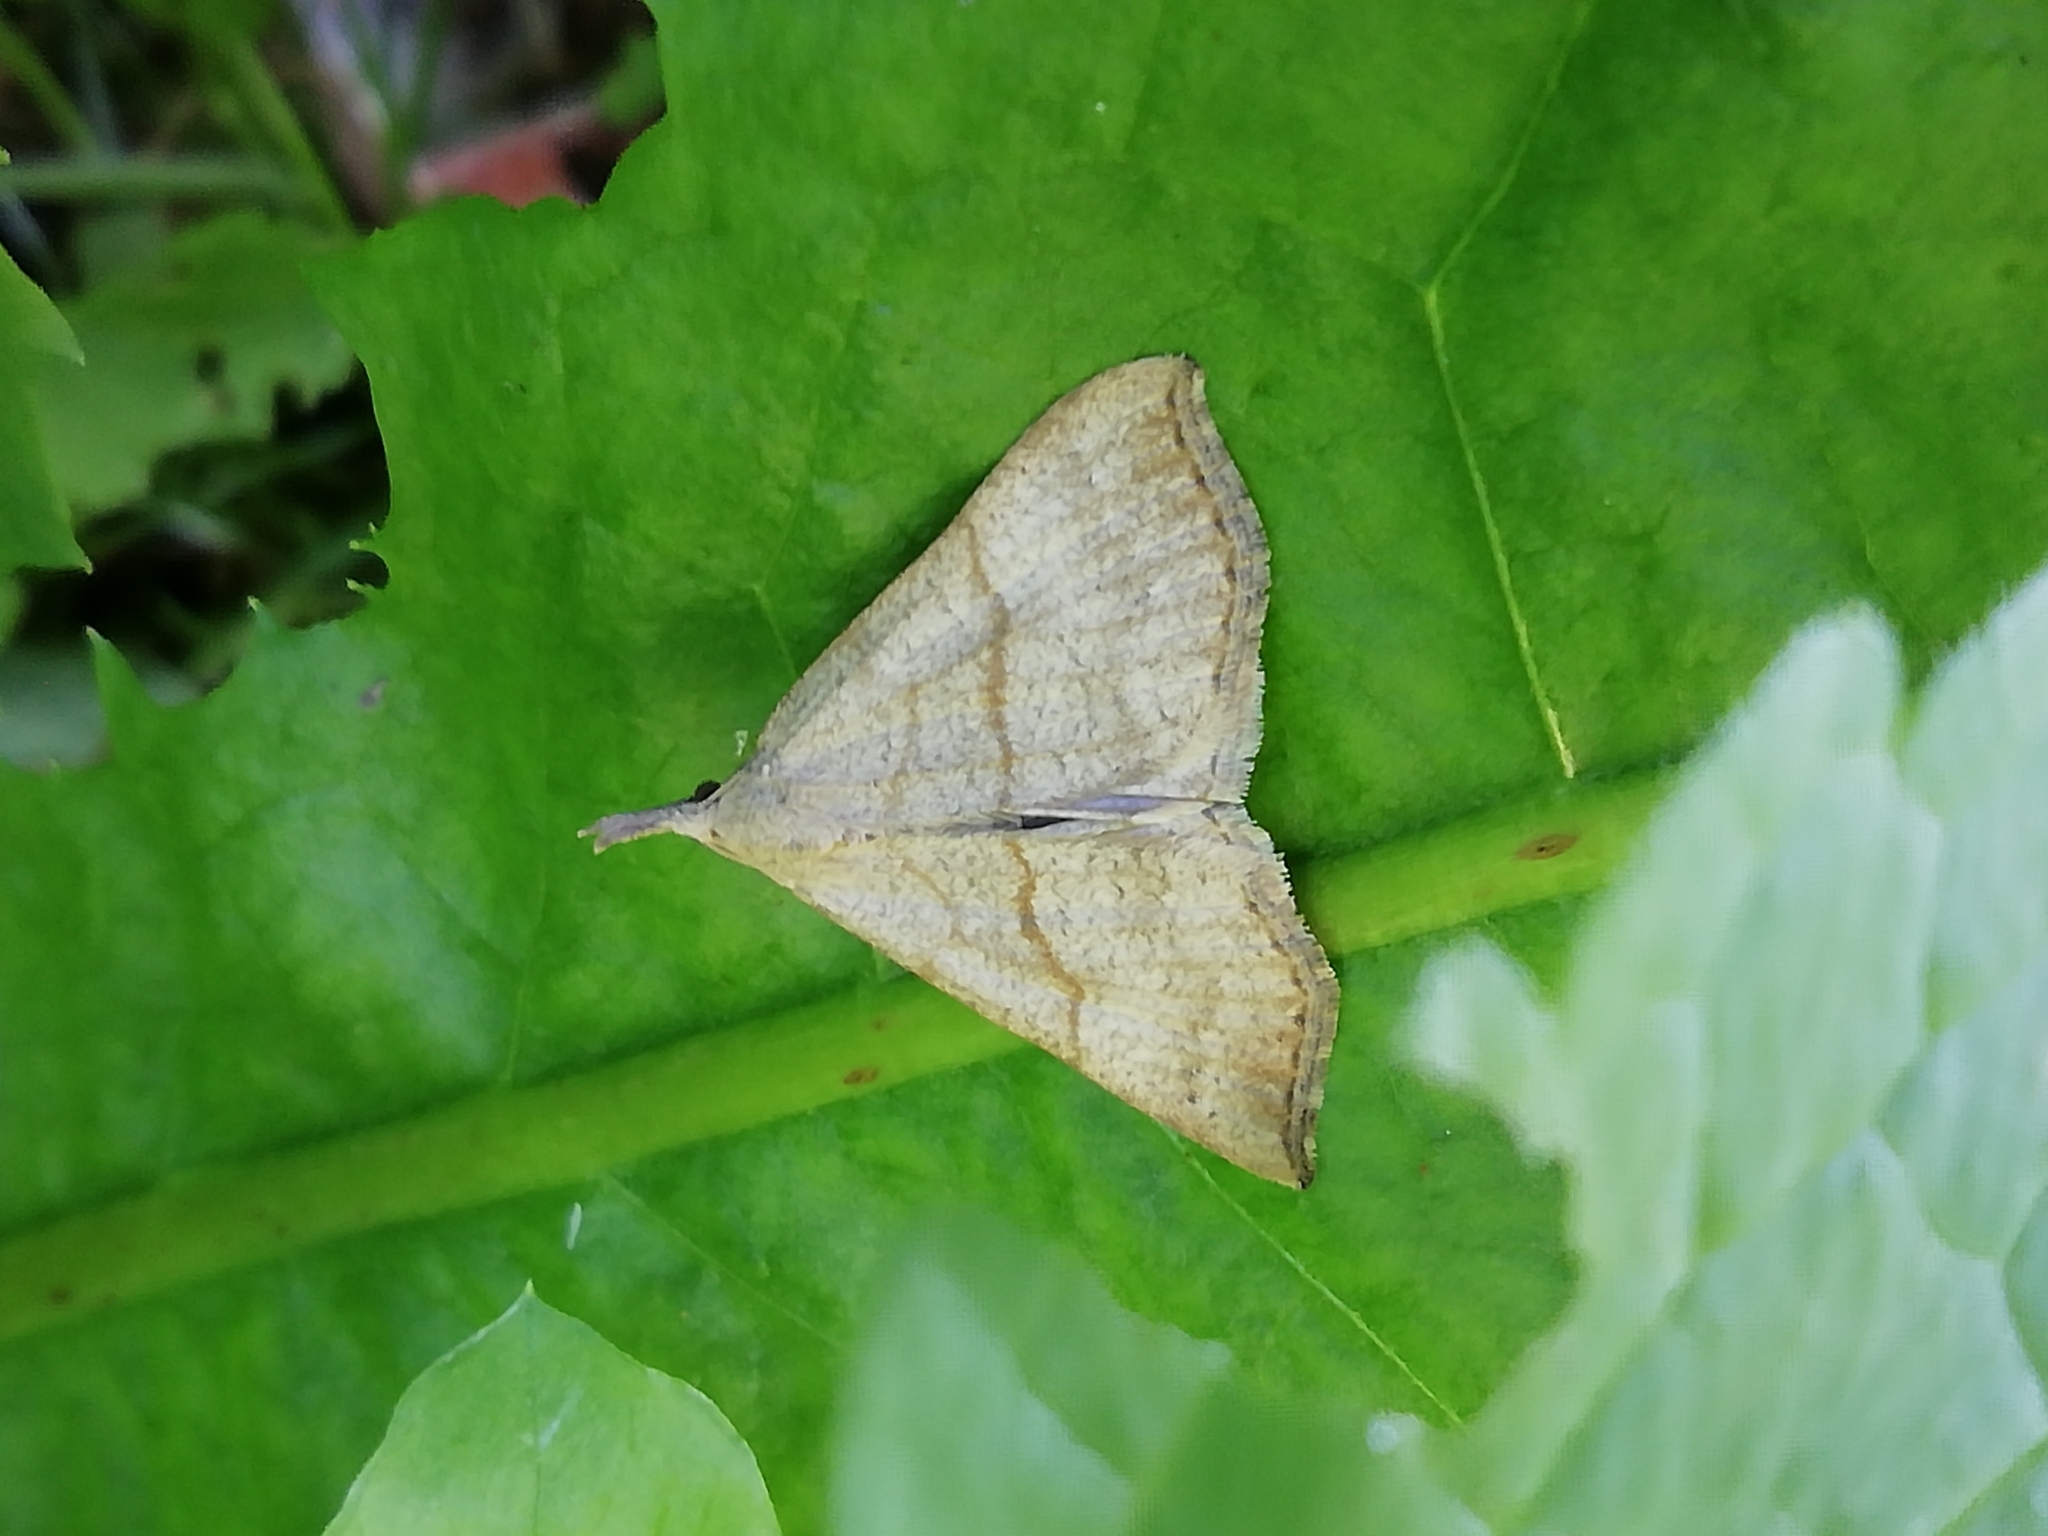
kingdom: Animalia
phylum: Arthropoda
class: Insecta
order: Lepidoptera
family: Erebidae
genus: Hypena
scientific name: Hypena proboscidalis
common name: Snout
